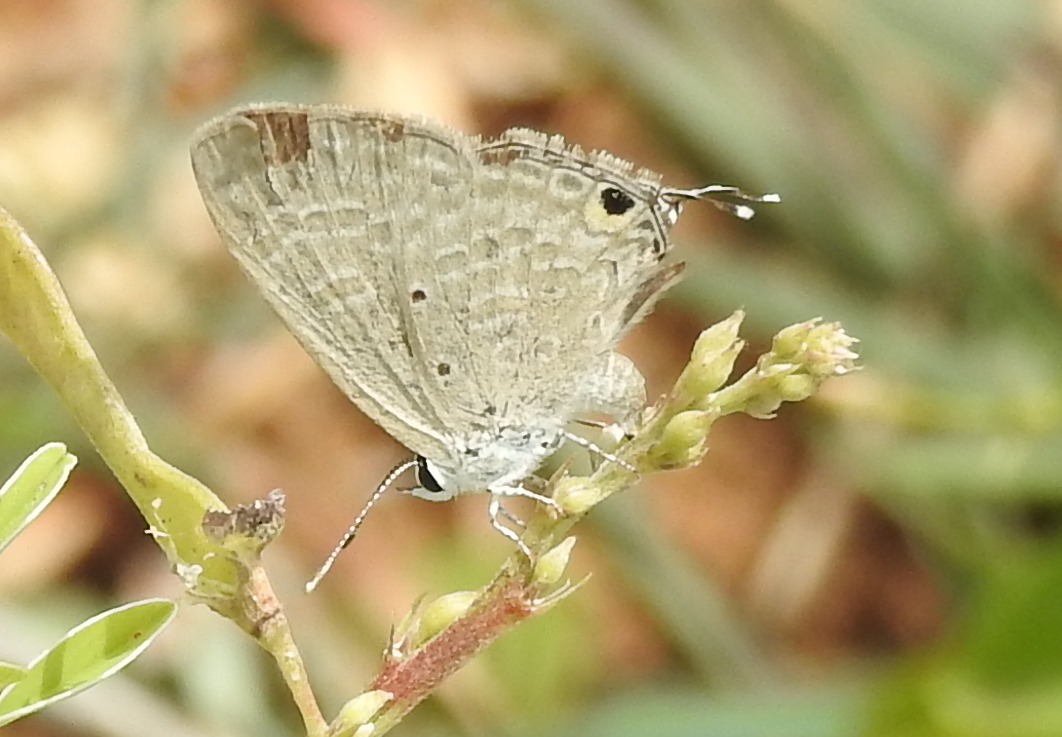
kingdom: Animalia
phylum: Arthropoda
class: Insecta
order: Lepidoptera
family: Lycaenidae
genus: Catochrysops
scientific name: Catochrysops strabo
